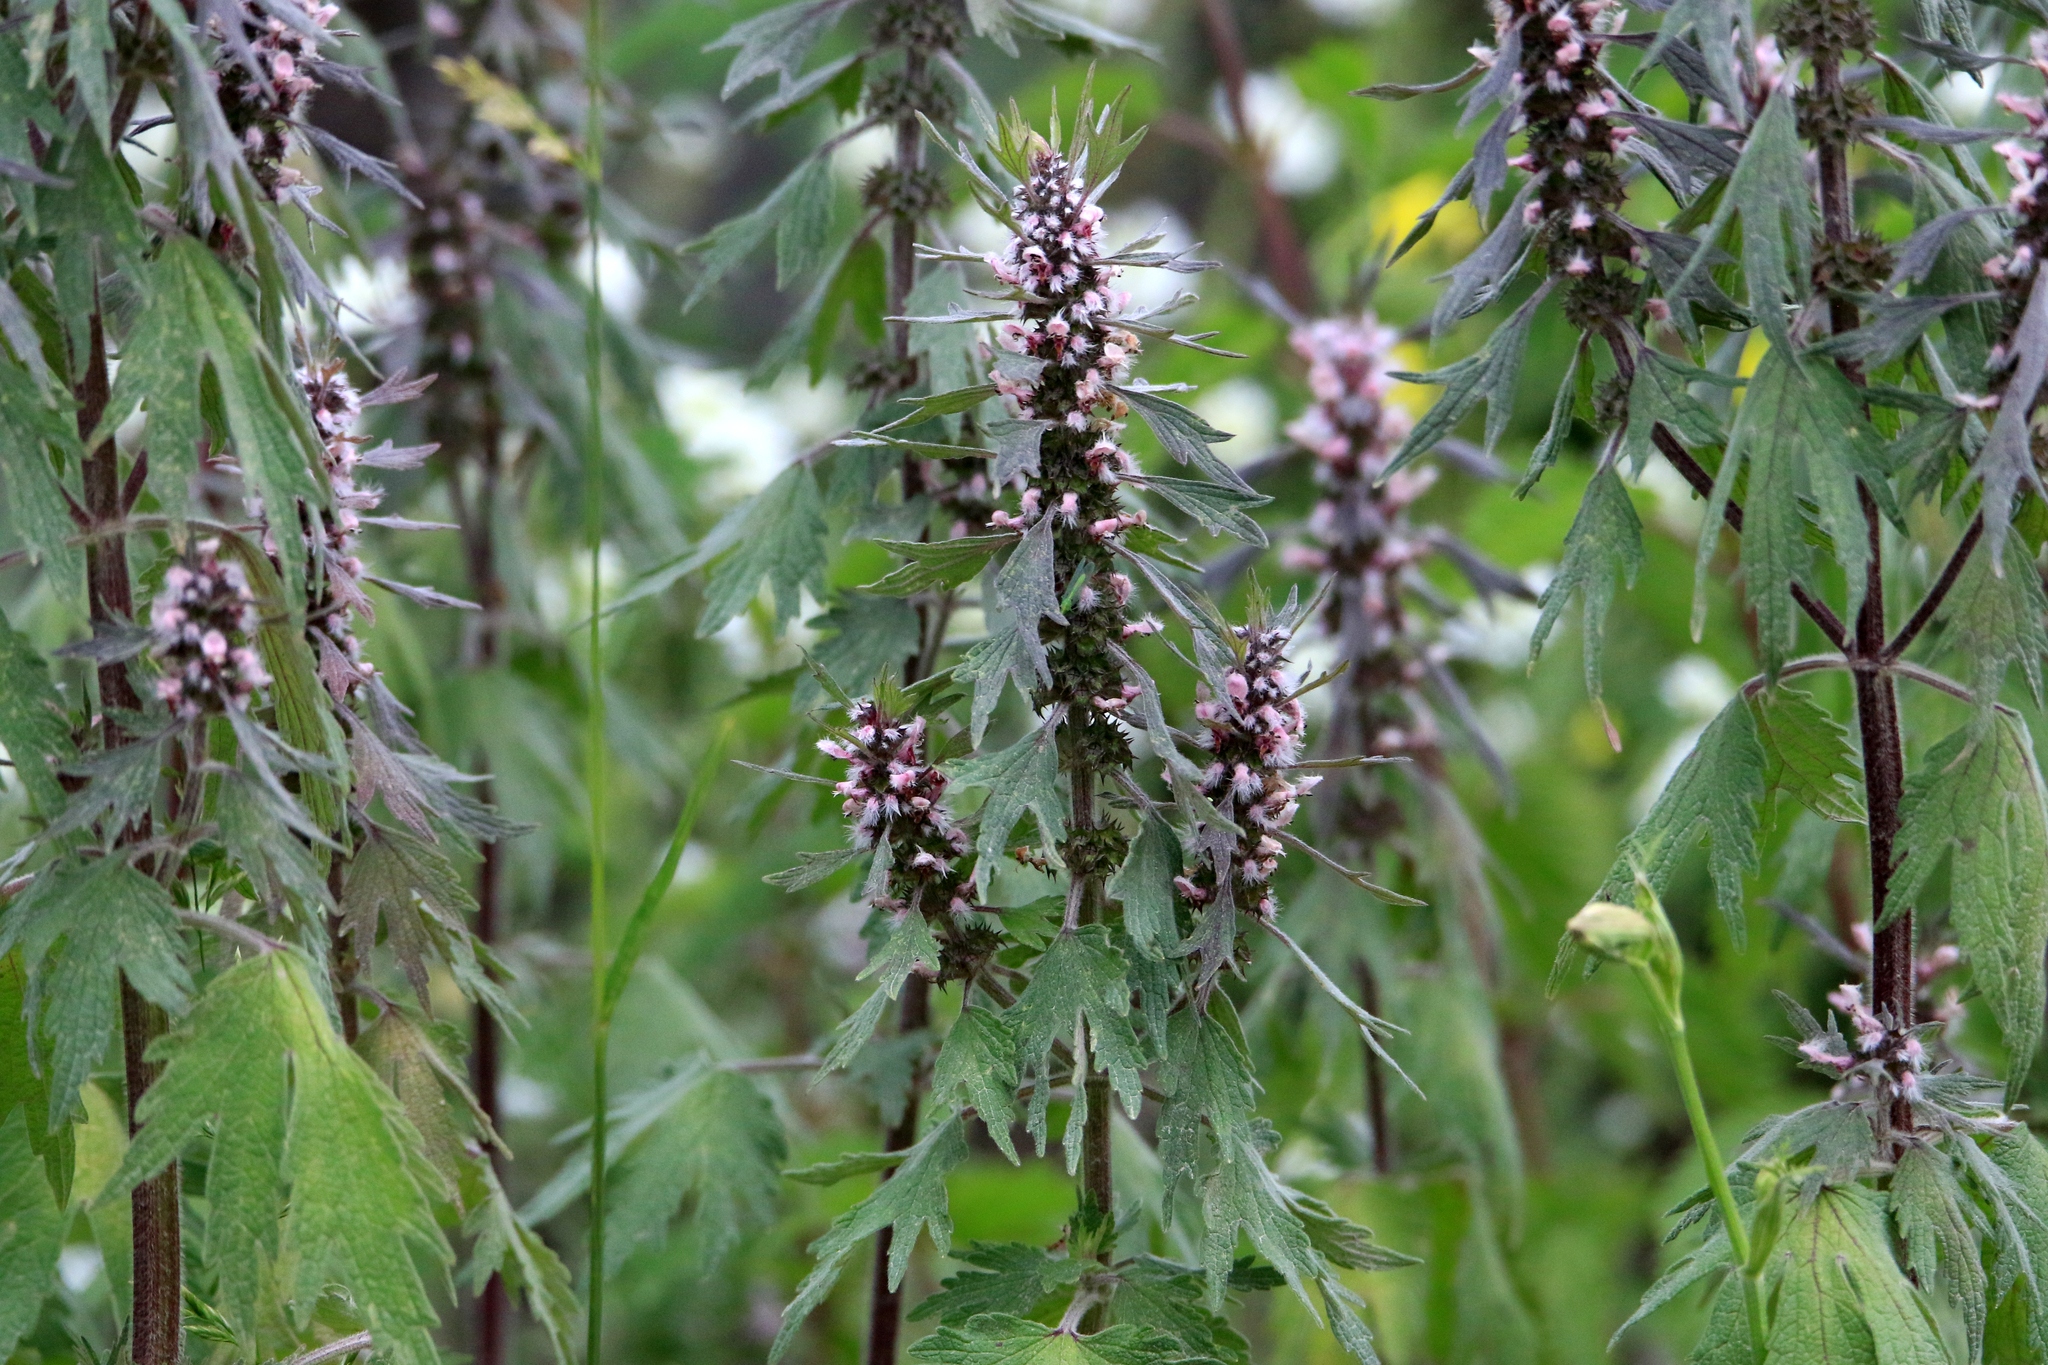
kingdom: Plantae
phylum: Tracheophyta
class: Magnoliopsida
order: Lamiales
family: Lamiaceae
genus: Leonurus
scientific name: Leonurus quinquelobatus
